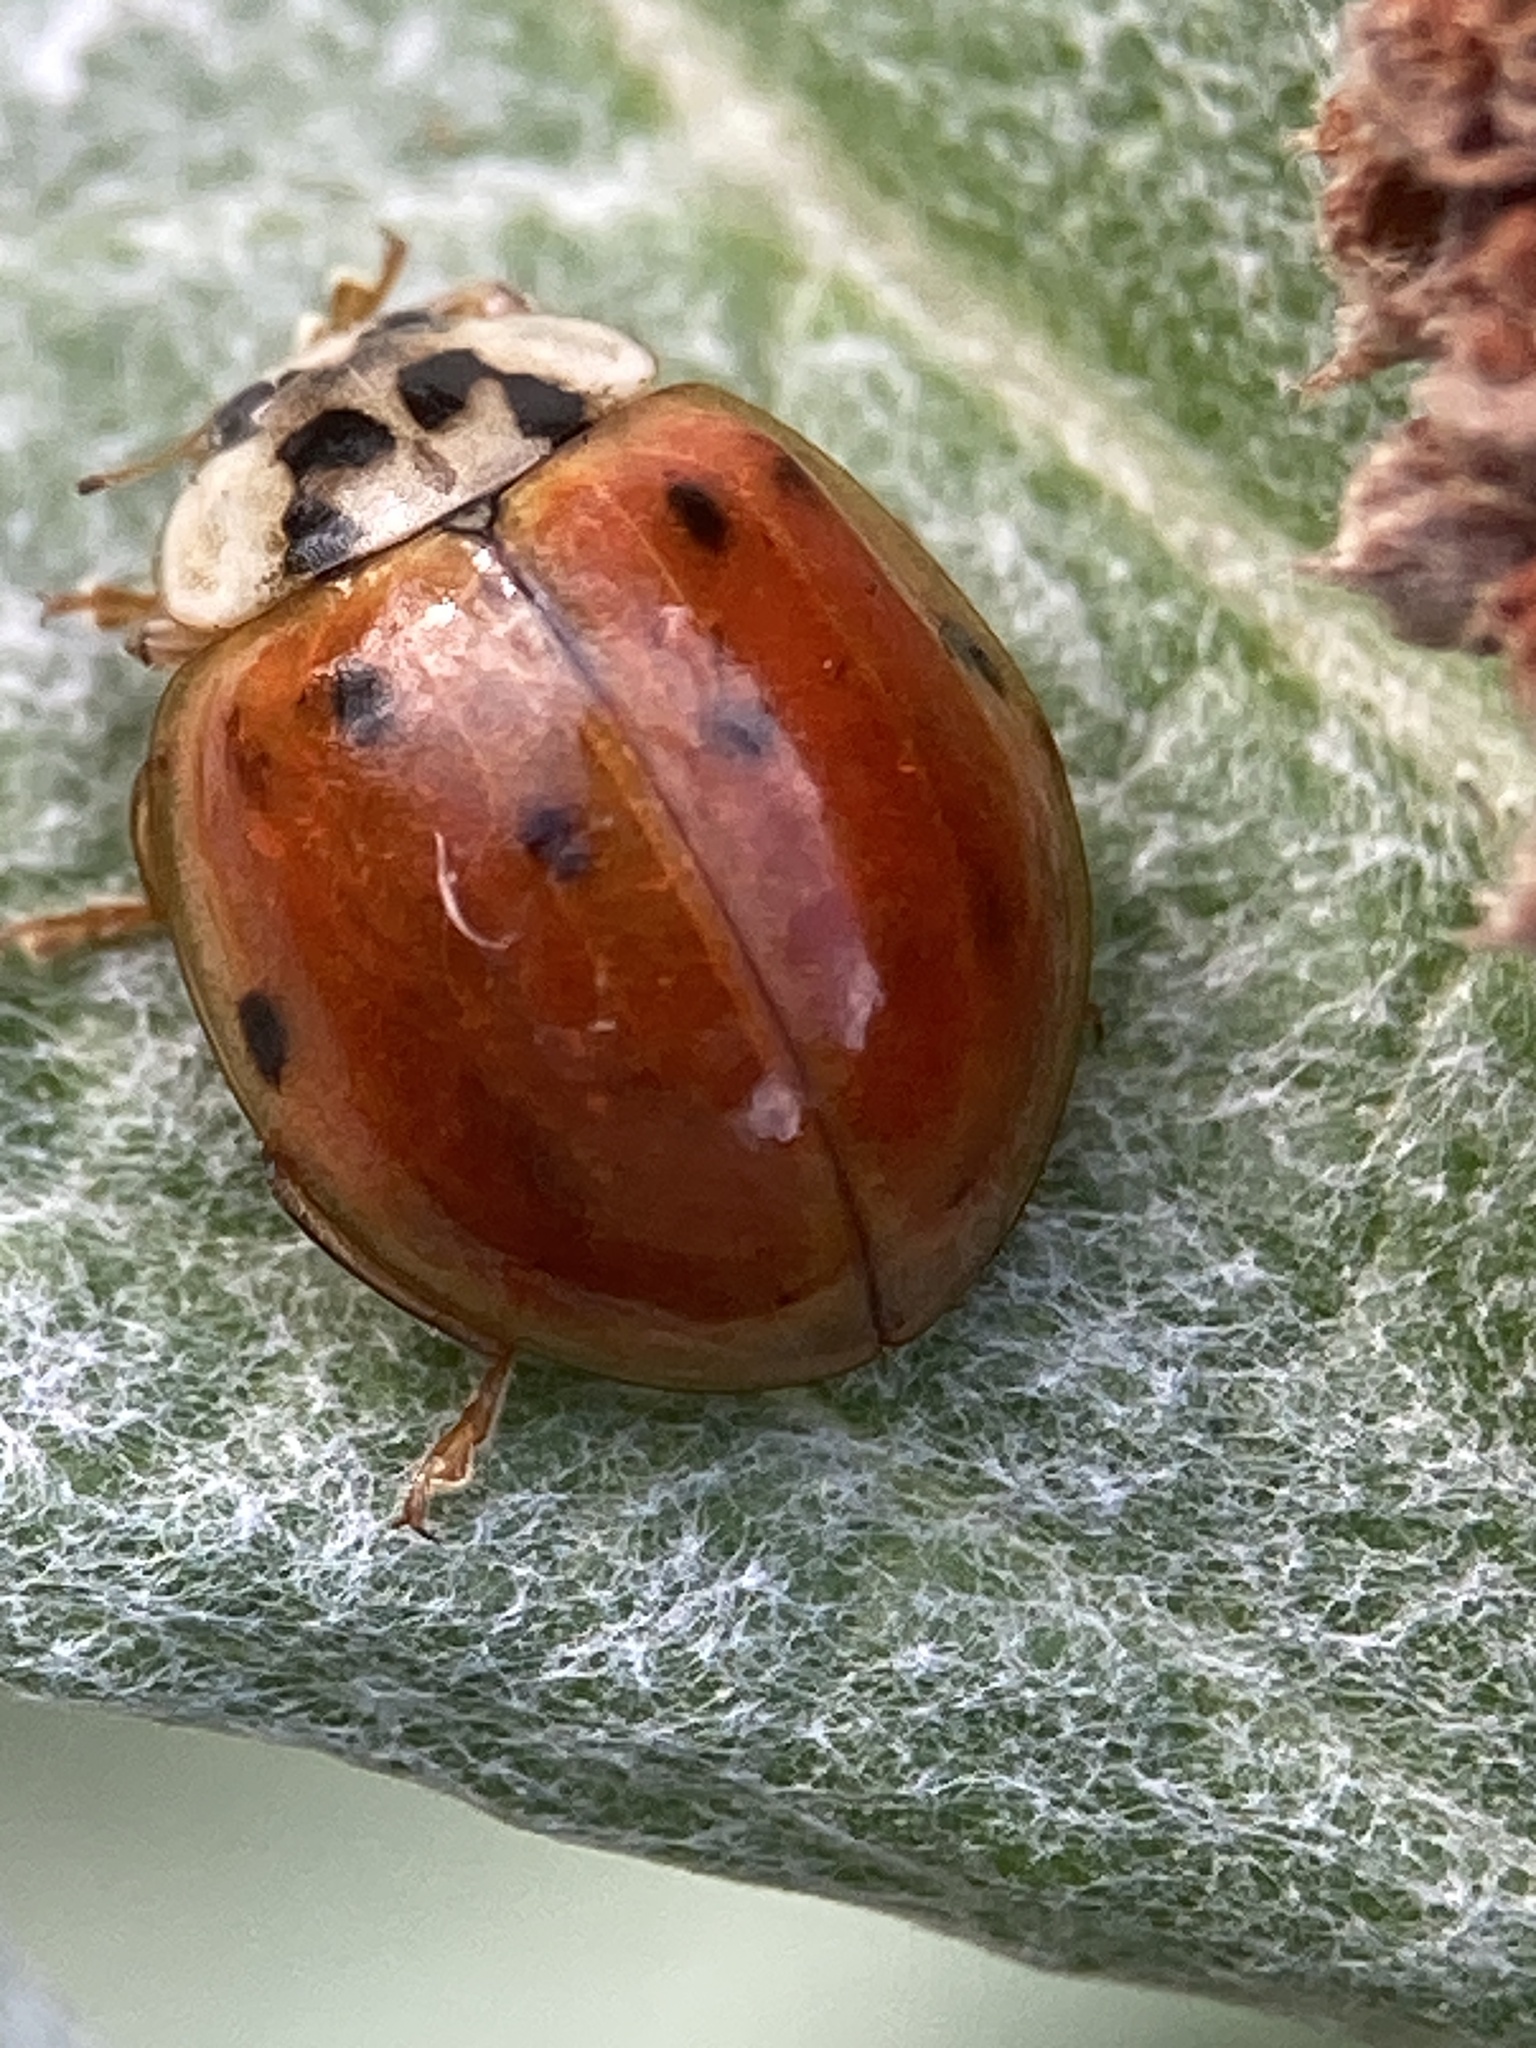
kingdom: Animalia
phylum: Arthropoda
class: Insecta
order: Coleoptera
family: Coccinellidae
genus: Harmonia
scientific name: Harmonia axyridis
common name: Harlequin ladybird
